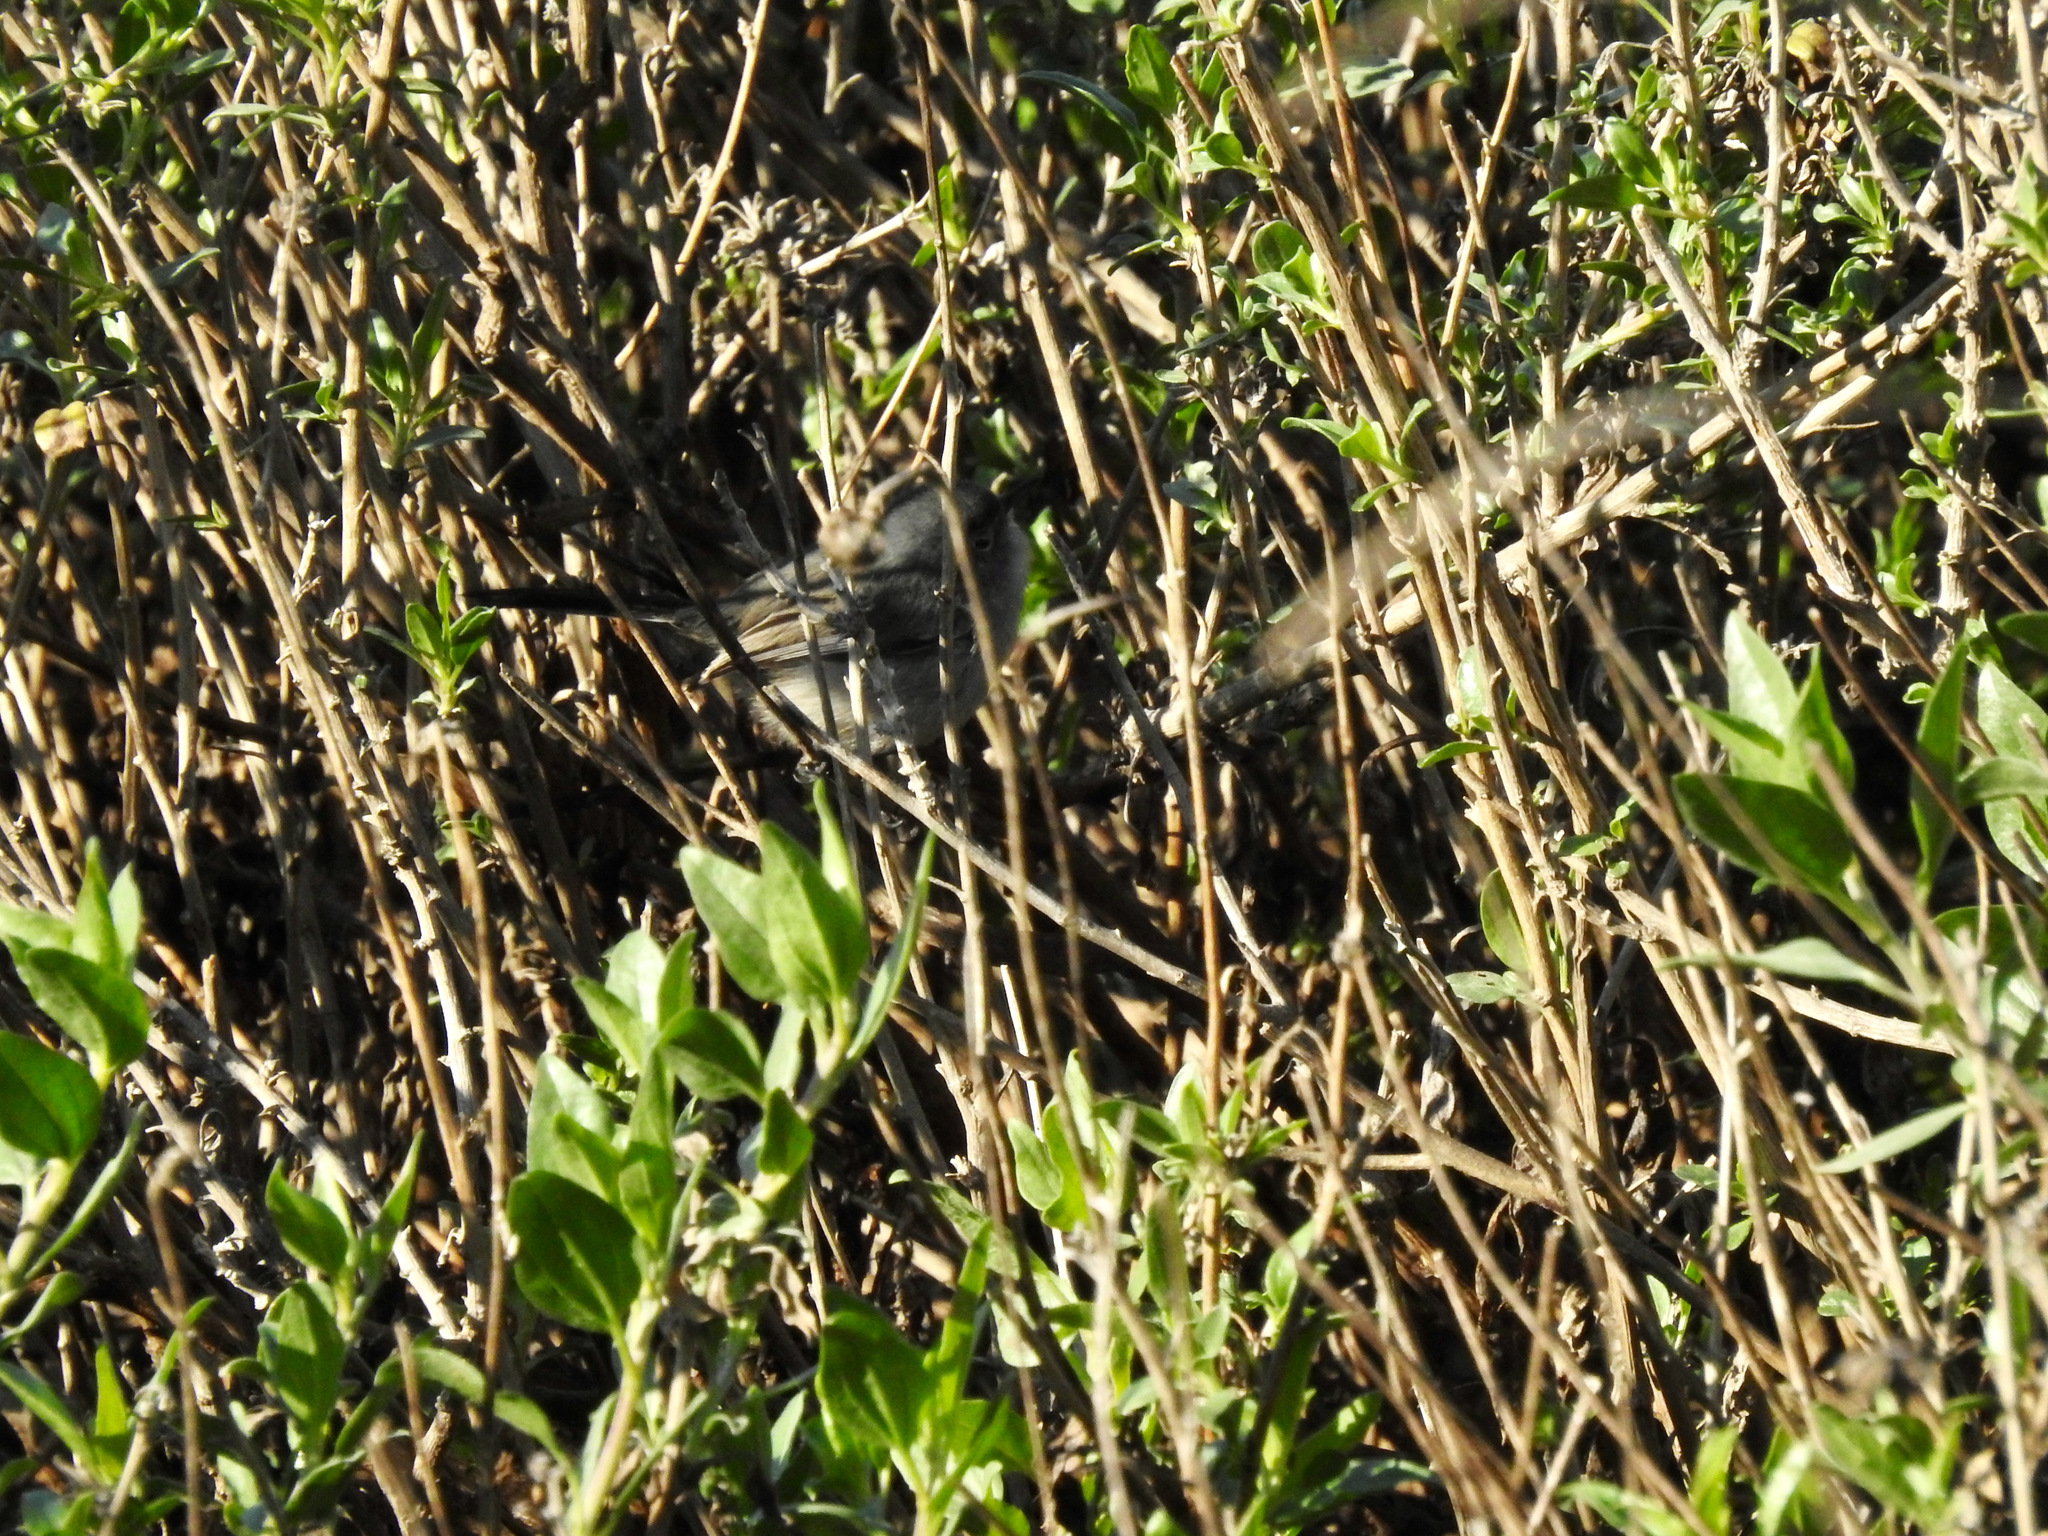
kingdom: Animalia
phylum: Chordata
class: Aves
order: Passeriformes
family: Polioptilidae
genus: Polioptila
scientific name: Polioptila californica
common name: California gnatcatcher
